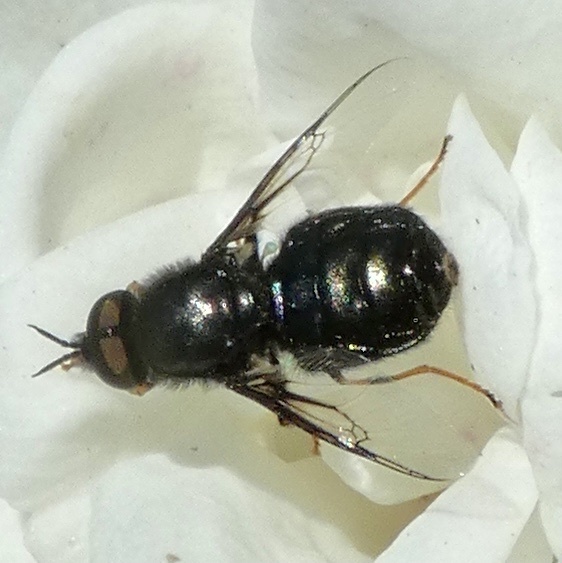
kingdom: Animalia
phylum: Arthropoda
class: Insecta
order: Diptera
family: Stratiomyidae
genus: Odontomyia
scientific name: Odontomyia tigrina
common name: Black colonel
